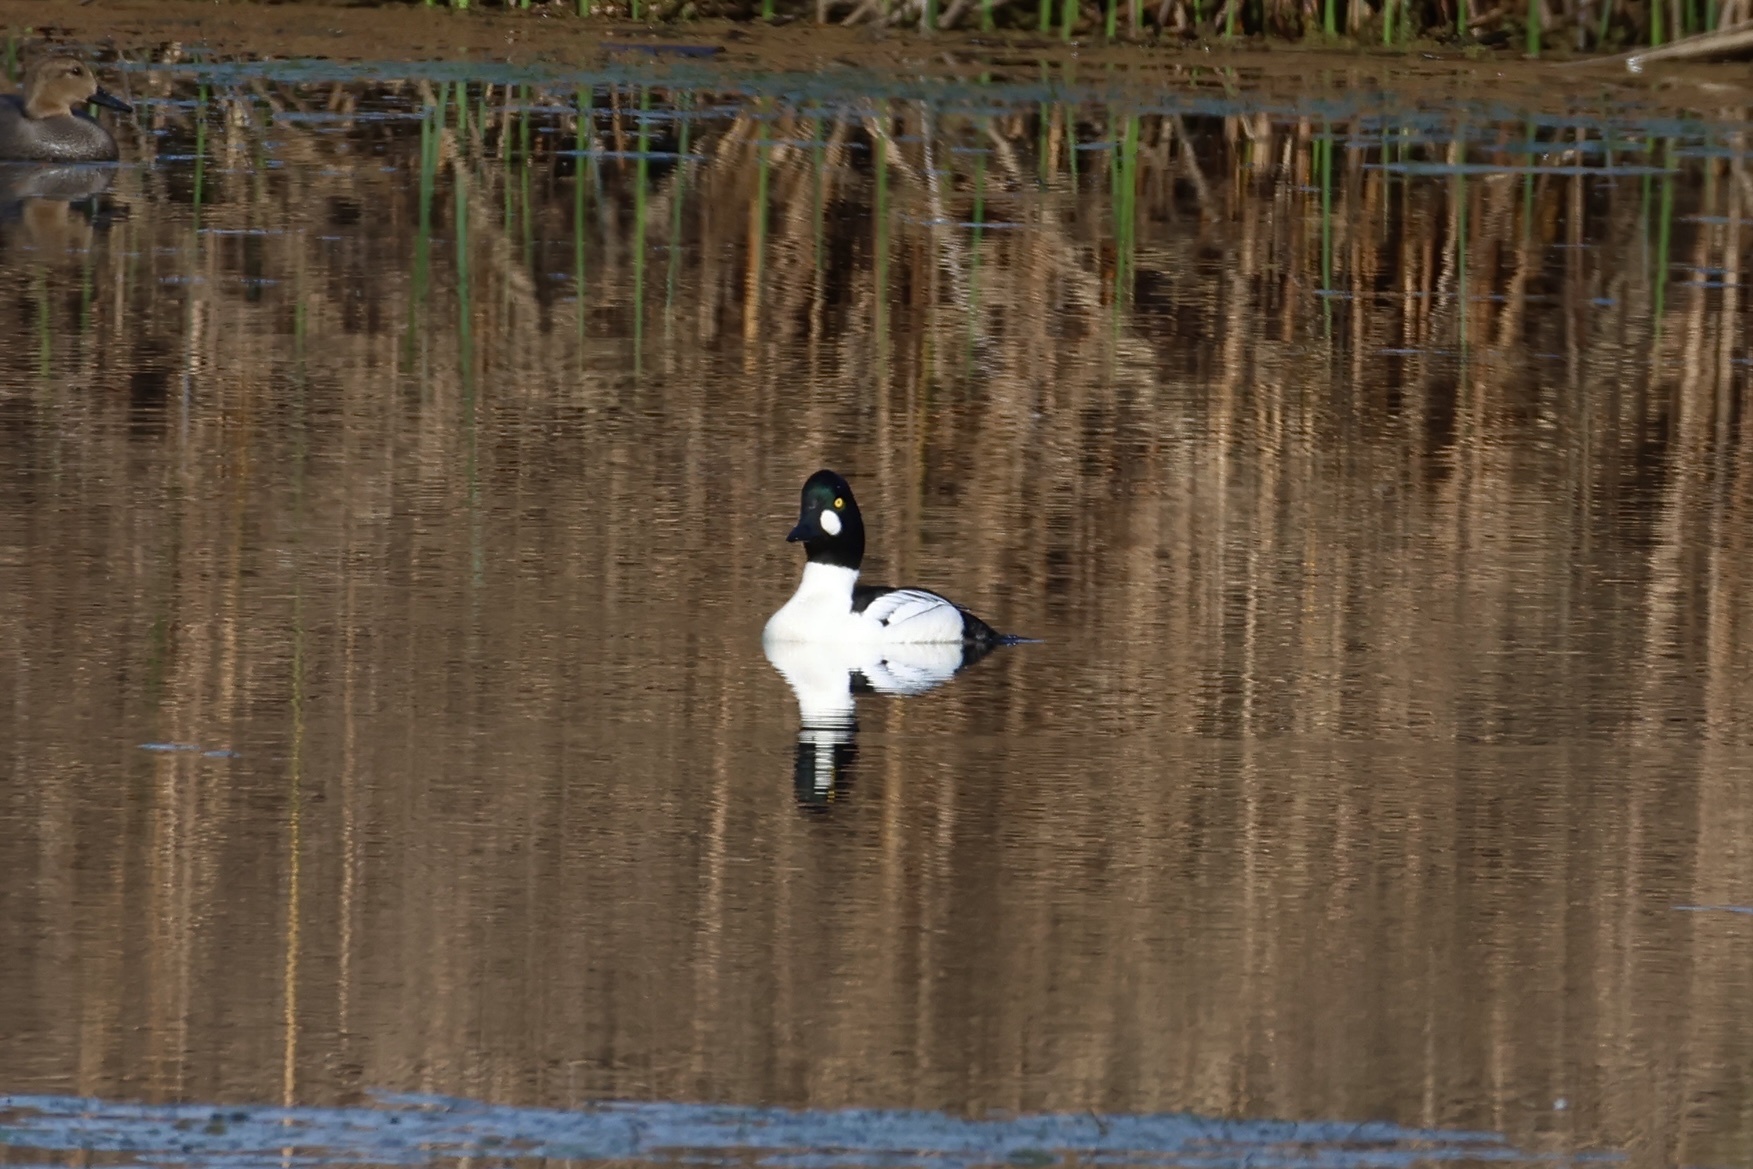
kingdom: Animalia
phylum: Chordata
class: Aves
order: Anseriformes
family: Anatidae
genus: Bucephala
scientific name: Bucephala clangula
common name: Common goldeneye
